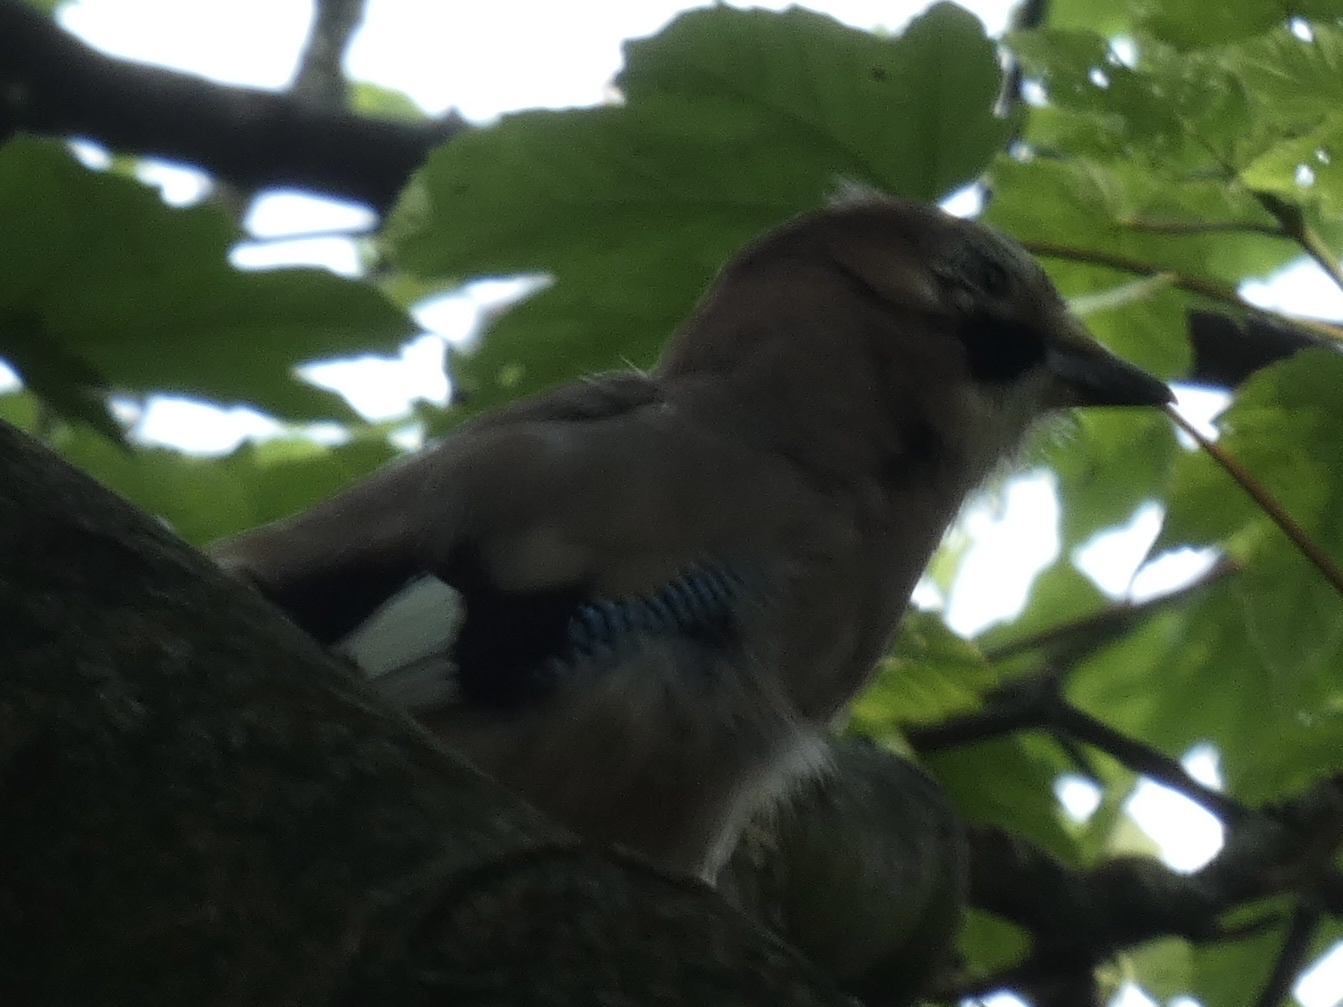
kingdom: Animalia
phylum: Chordata
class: Aves
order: Passeriformes
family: Corvidae
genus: Garrulus
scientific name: Garrulus glandarius
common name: Eurasian jay
